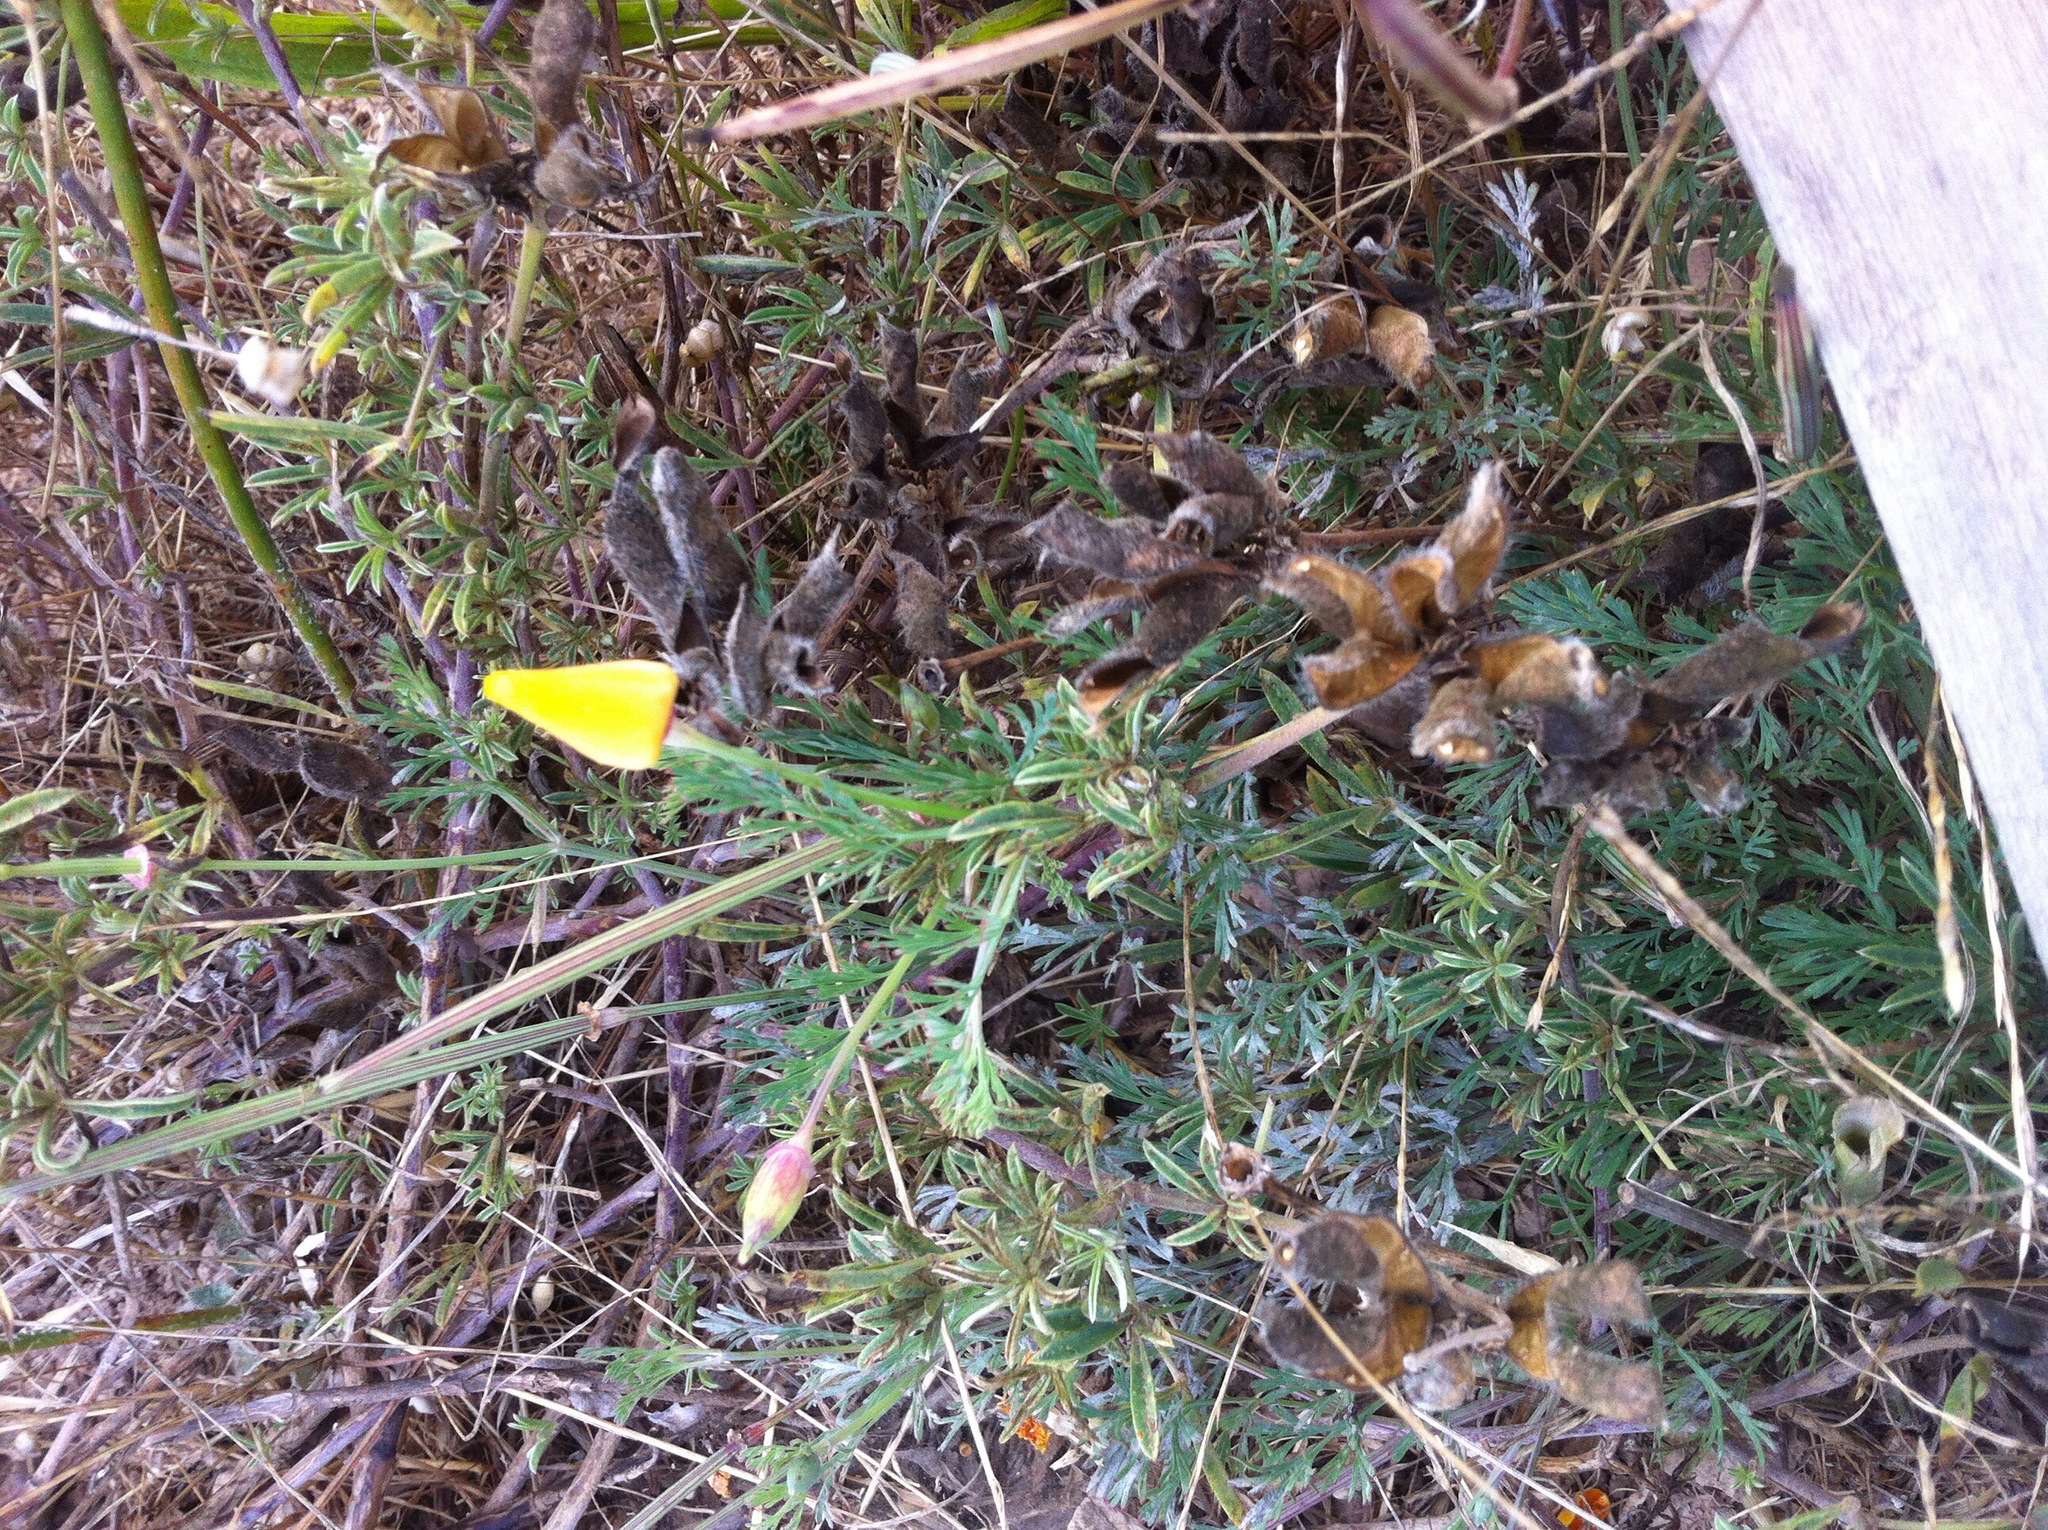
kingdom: Plantae
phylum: Tracheophyta
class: Magnoliopsida
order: Ranunculales
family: Papaveraceae
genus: Eschscholzia
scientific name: Eschscholzia californica
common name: California poppy
